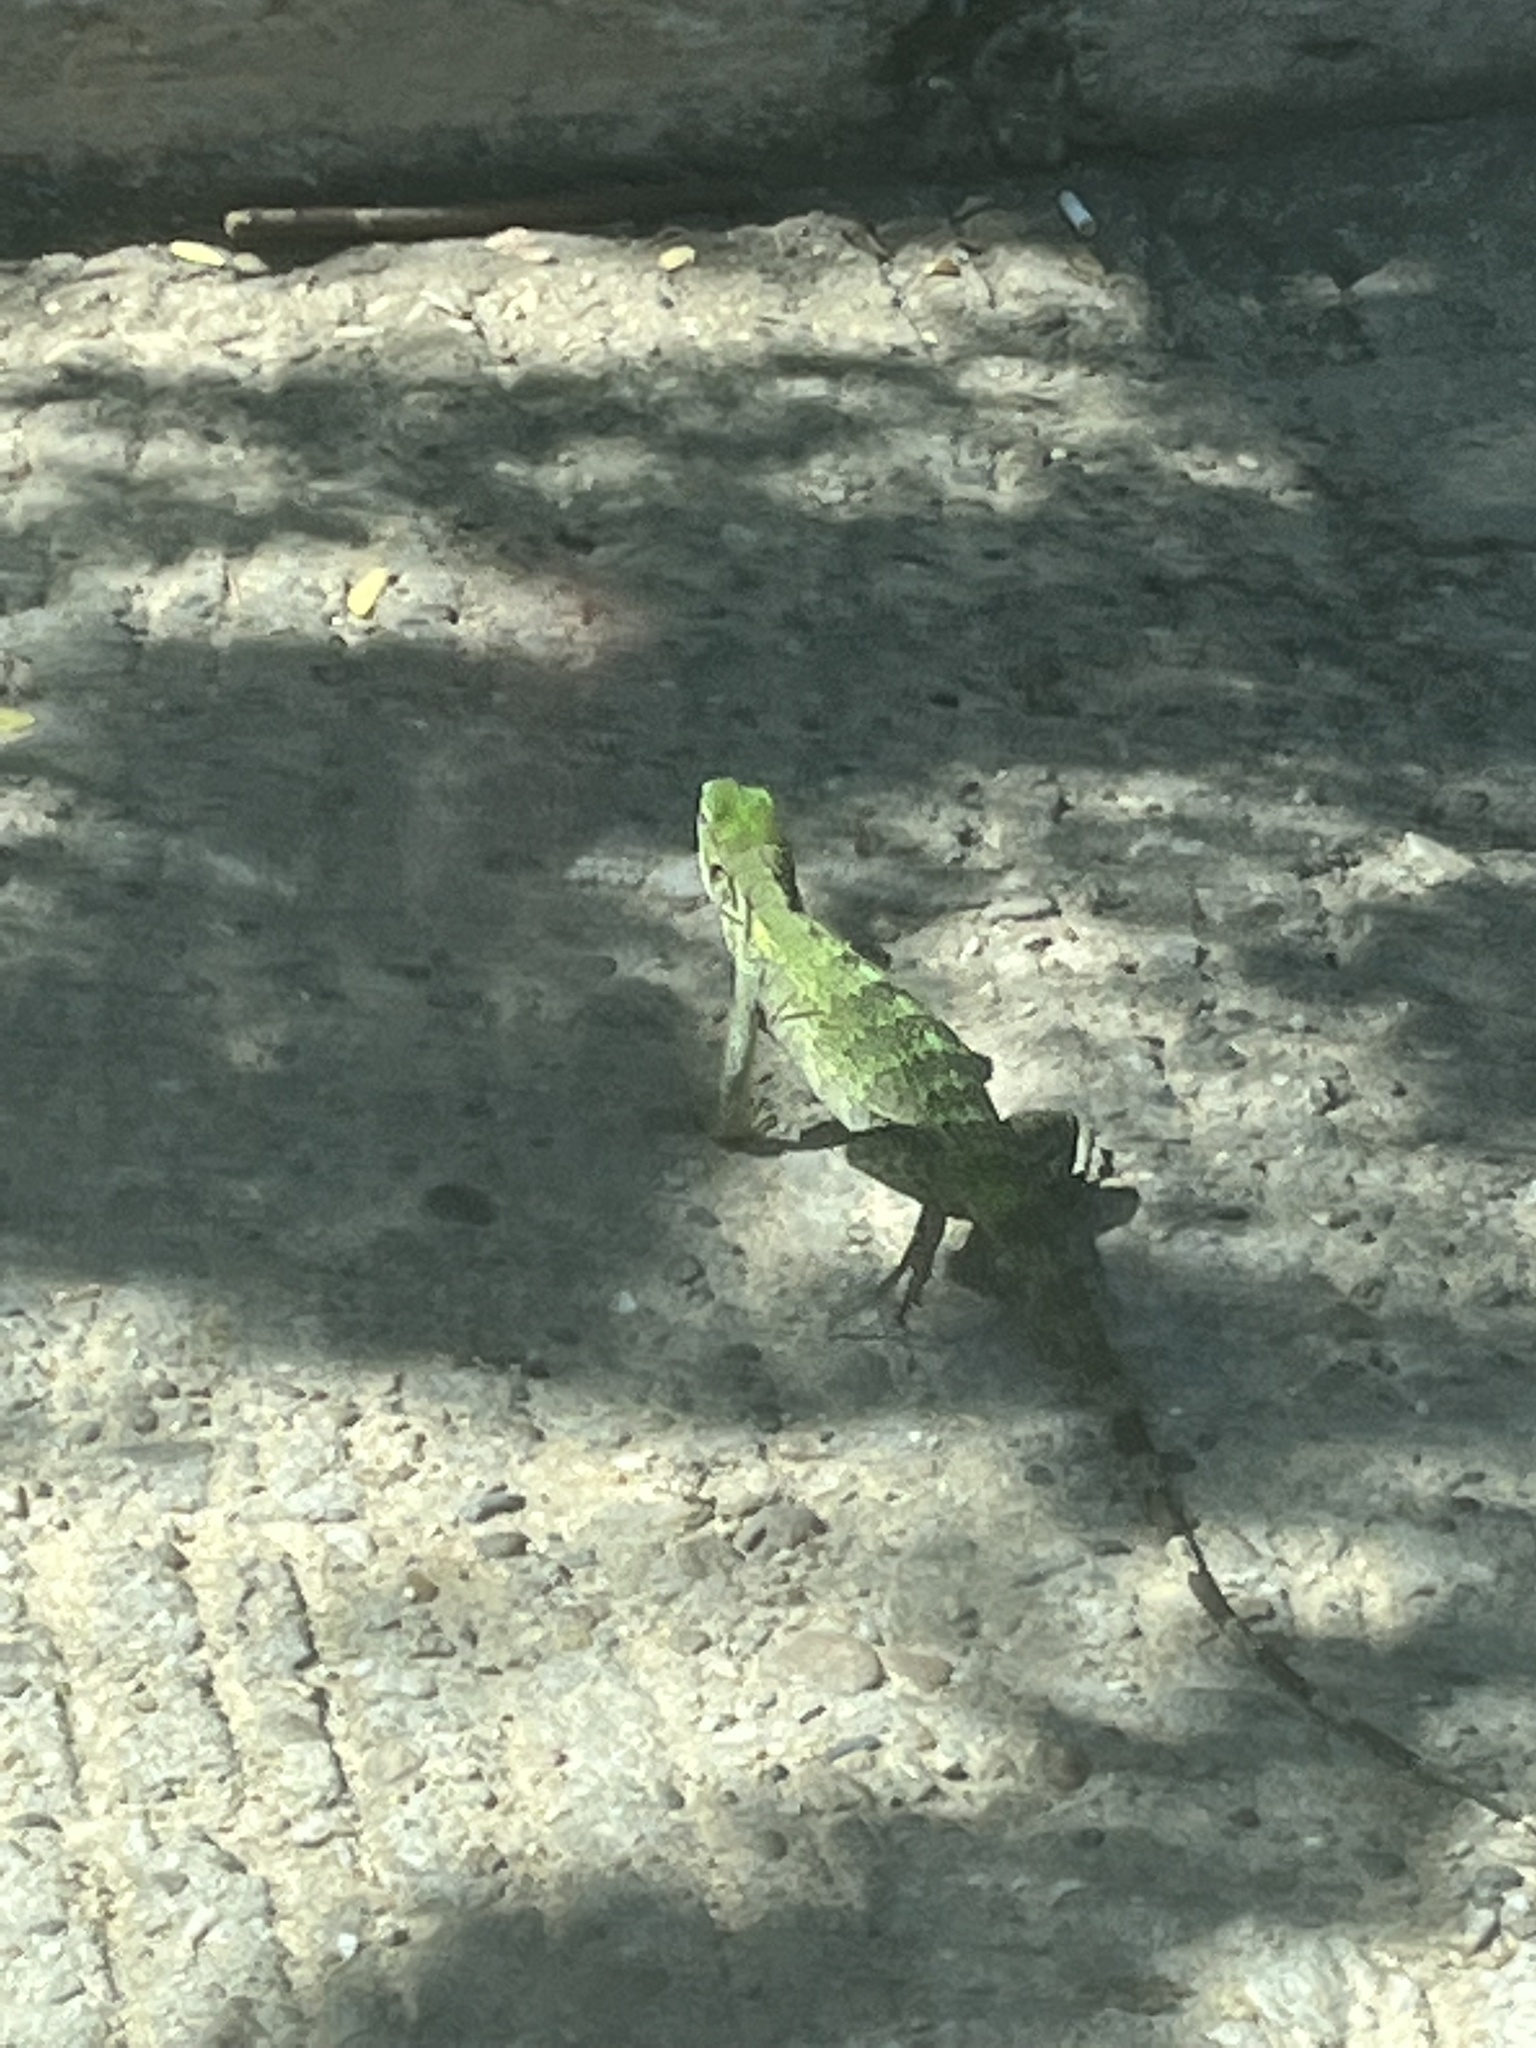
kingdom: Animalia
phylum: Chordata
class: Squamata
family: Iguanidae
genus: Ctenosaura
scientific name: Ctenosaura pectinata
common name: Guerreran spiny-tailed iguana
